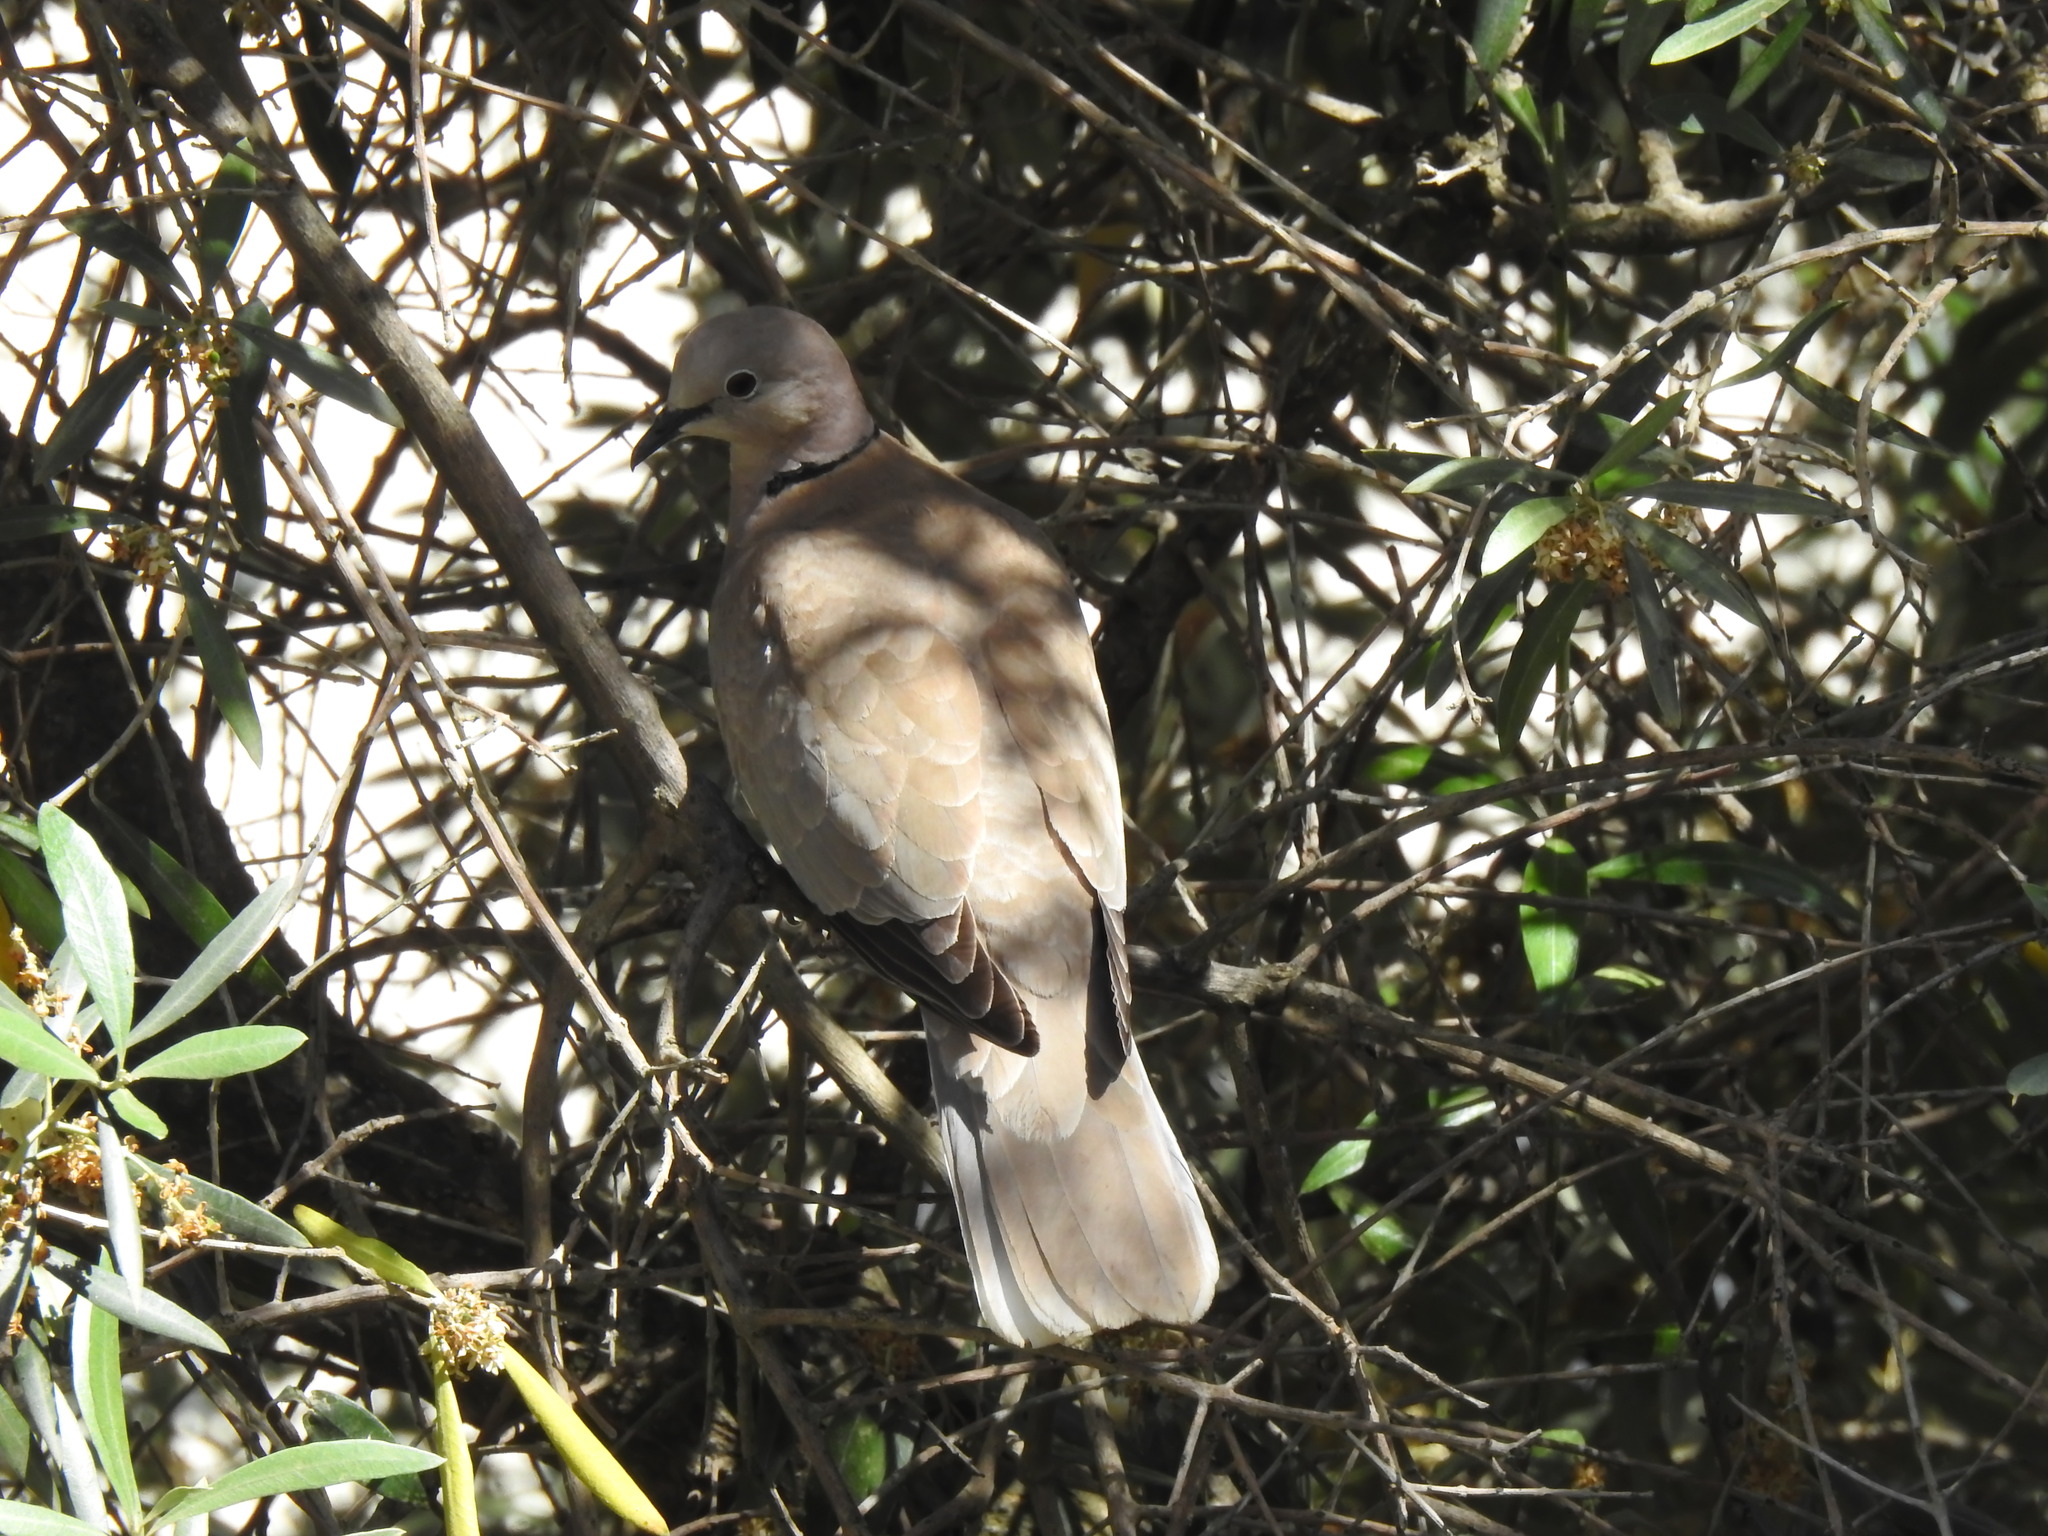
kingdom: Animalia
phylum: Chordata
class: Aves
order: Columbiformes
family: Columbidae
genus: Streptopelia
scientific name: Streptopelia decaocto
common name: Eurasian collared dove
